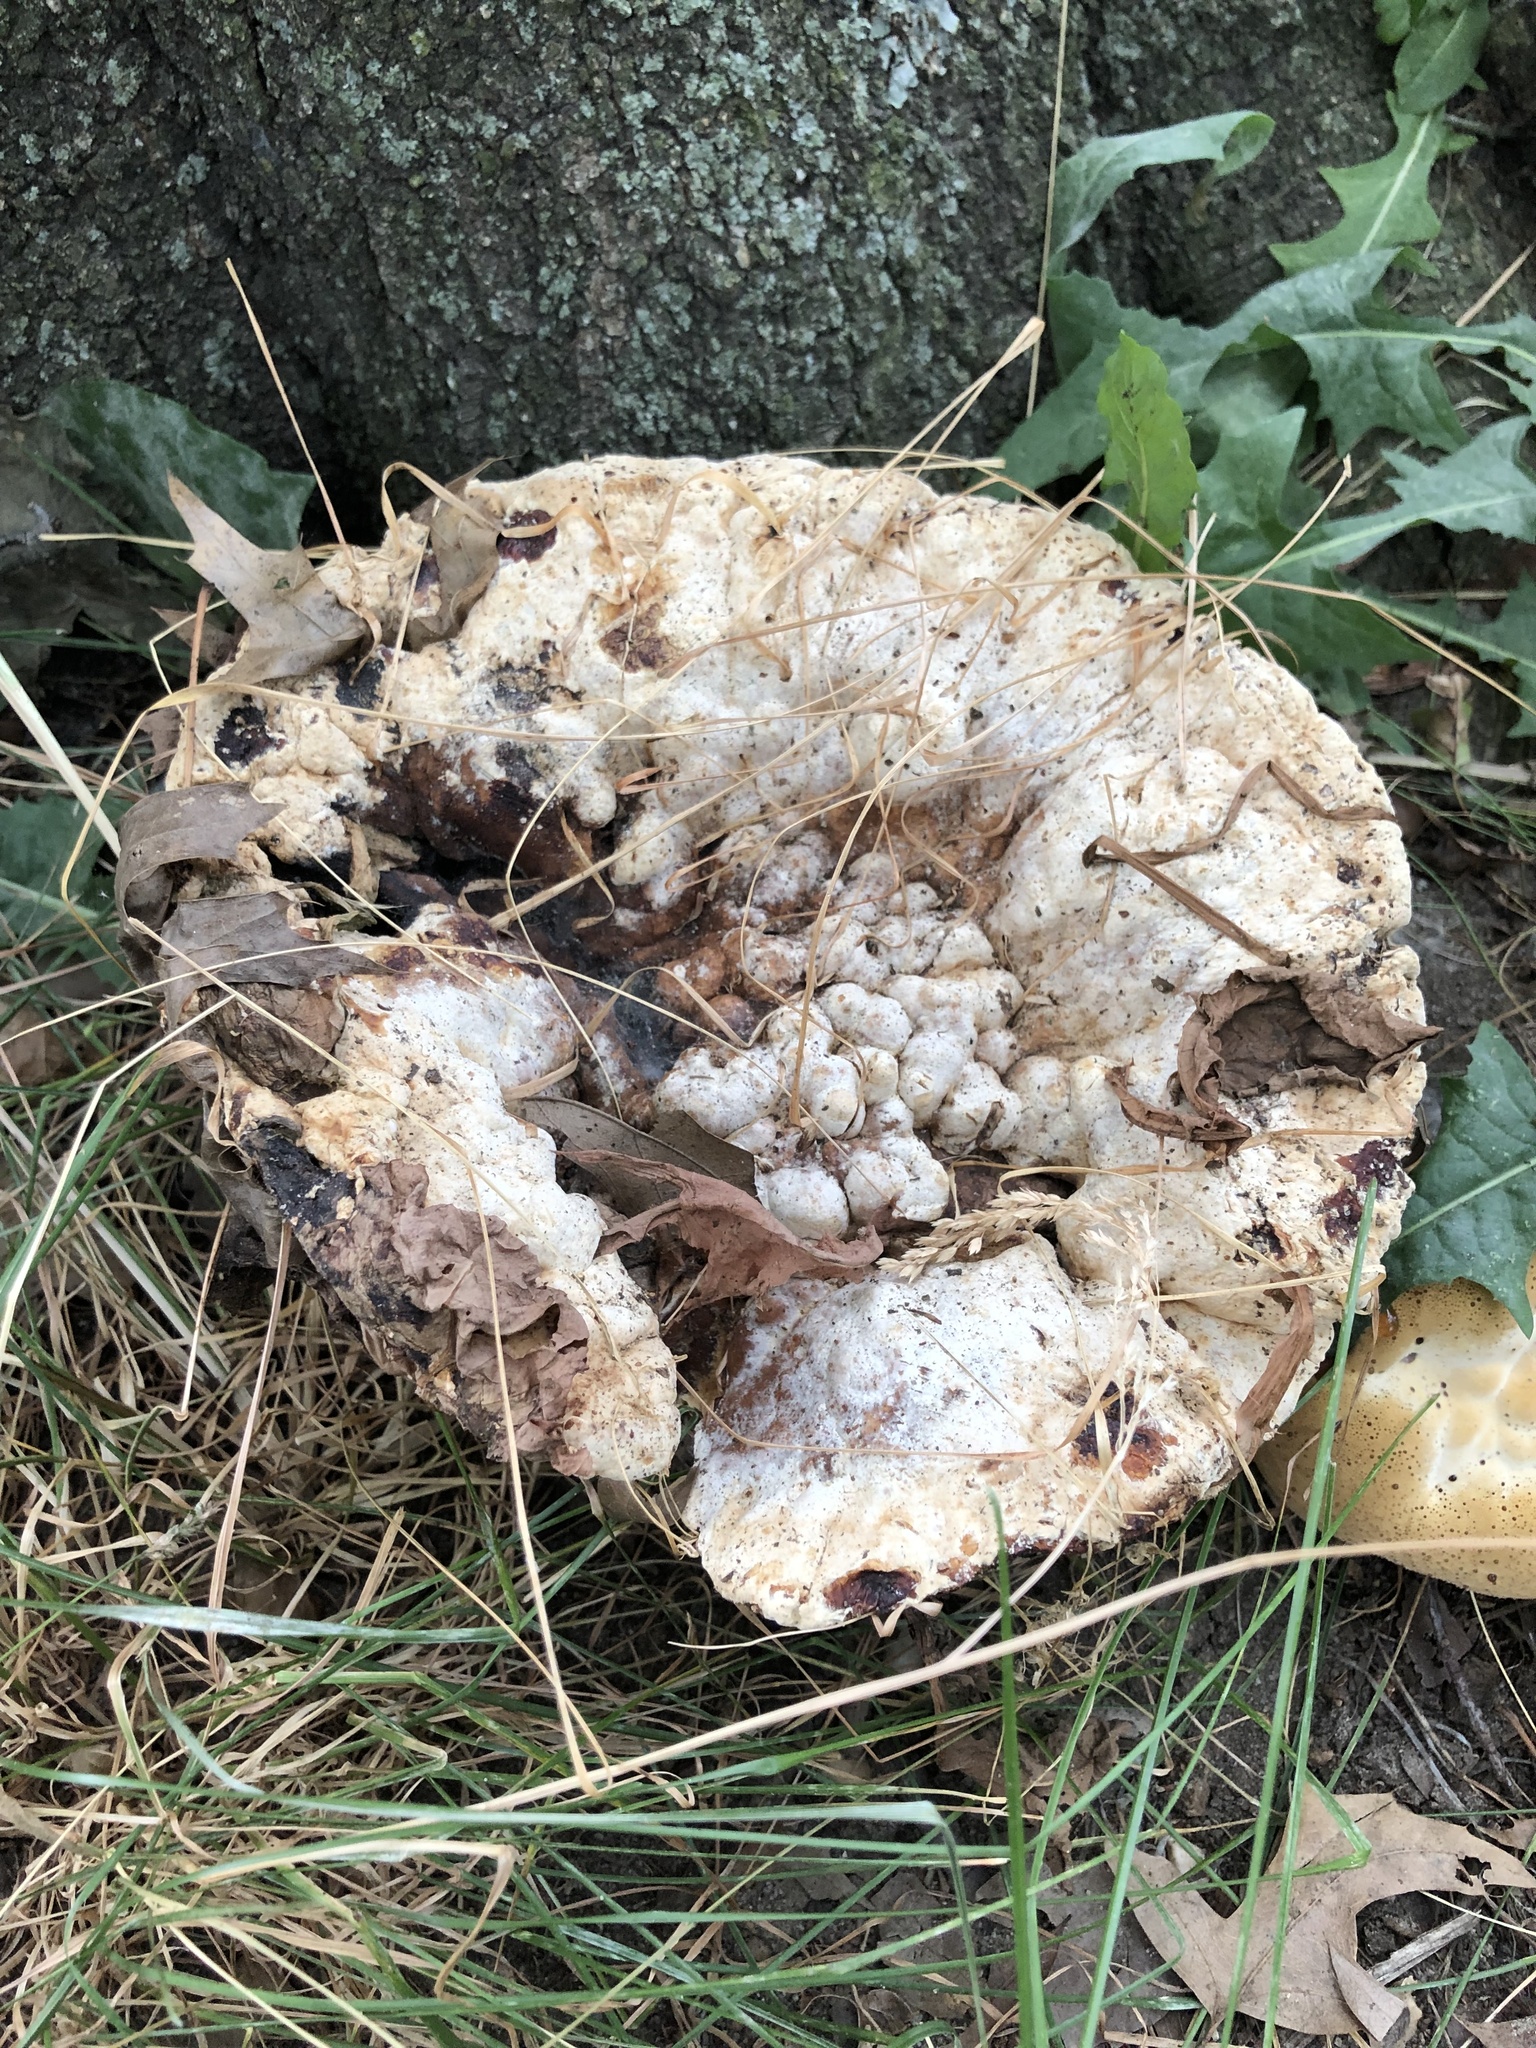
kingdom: Fungi
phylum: Basidiomycota
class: Agaricomycetes
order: Hymenochaetales
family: Hymenochaetaceae
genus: Pseudoinonotus
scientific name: Pseudoinonotus dryadeus
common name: Oak bracket
